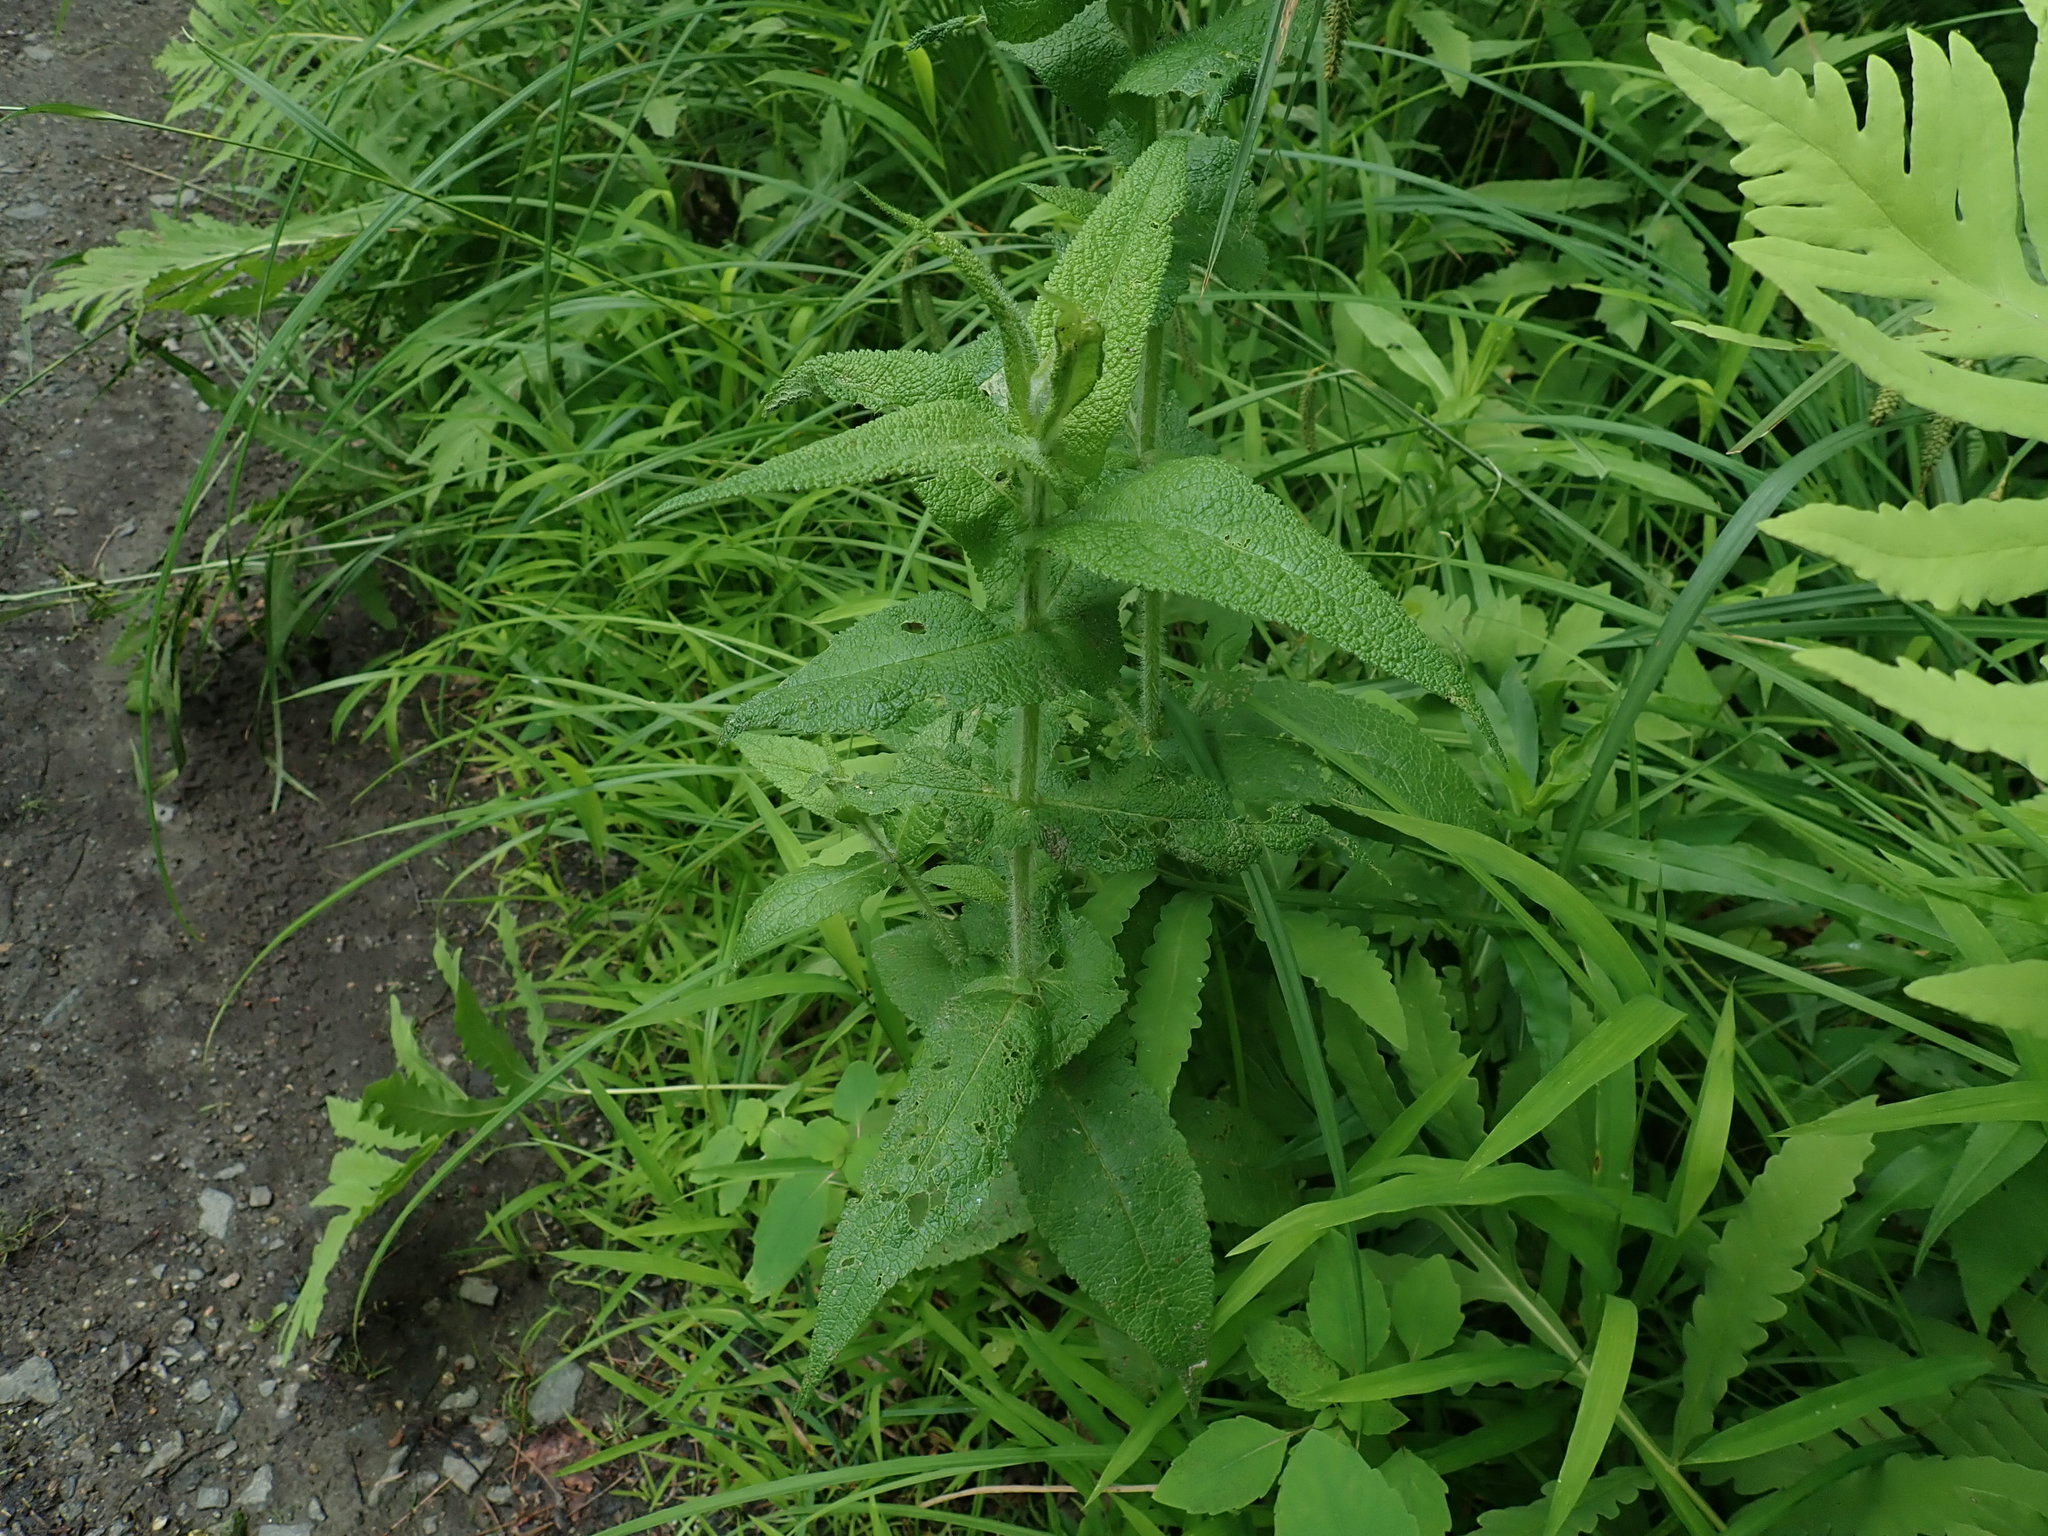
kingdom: Plantae
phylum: Tracheophyta
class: Magnoliopsida
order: Asterales
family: Asteraceae
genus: Eupatorium
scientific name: Eupatorium perfoliatum
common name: Boneset
